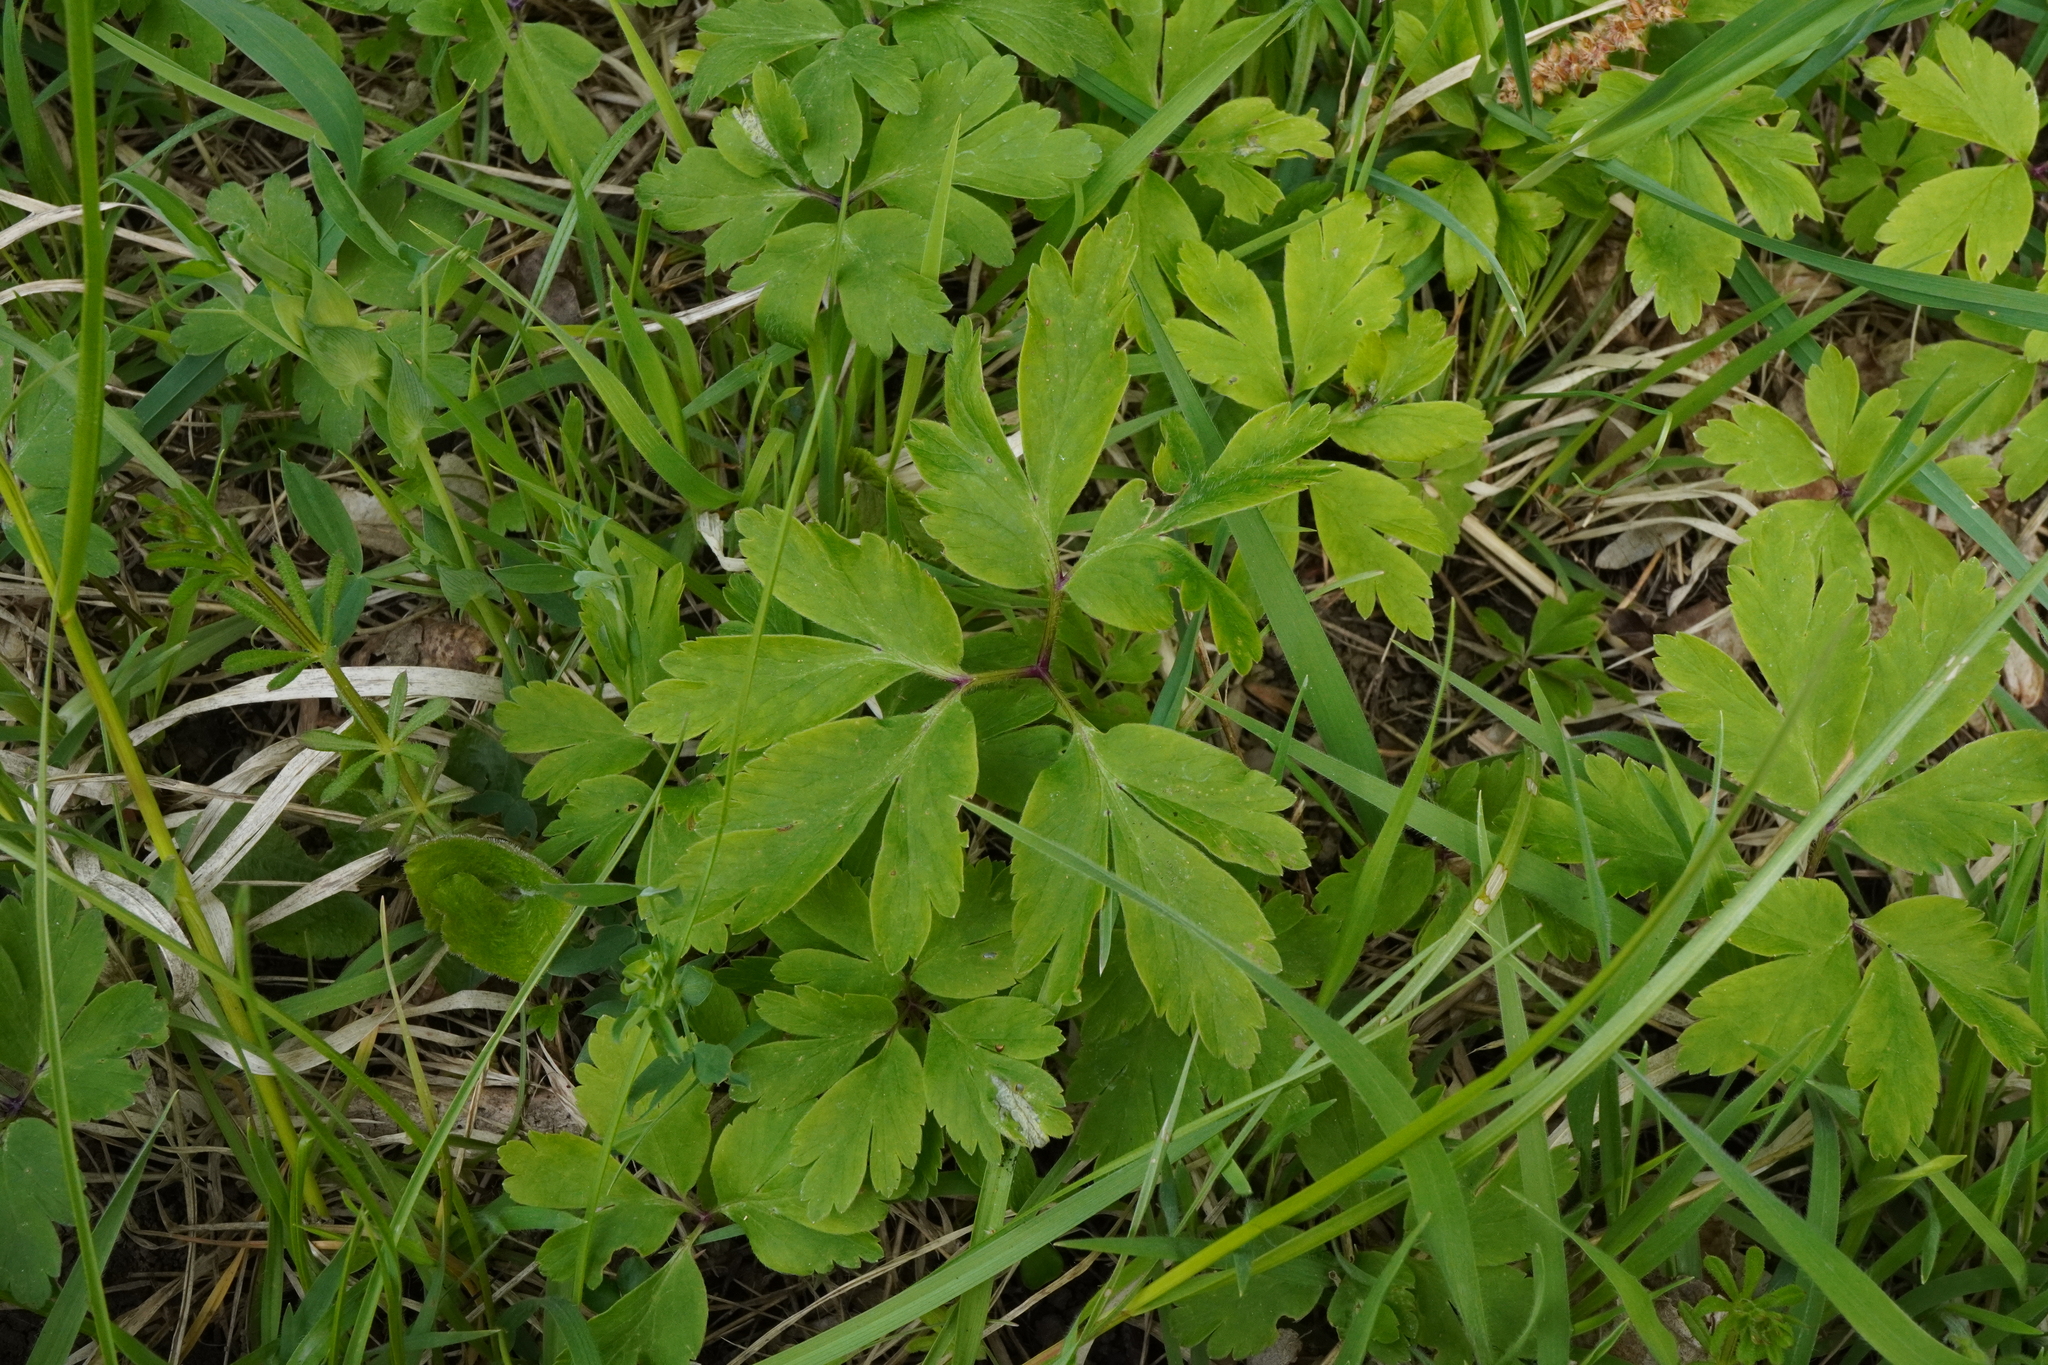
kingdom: Plantae
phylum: Tracheophyta
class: Magnoliopsida
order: Ranunculales
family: Ranunculaceae
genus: Anemone
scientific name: Anemone nemorosa
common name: Wood anemone
